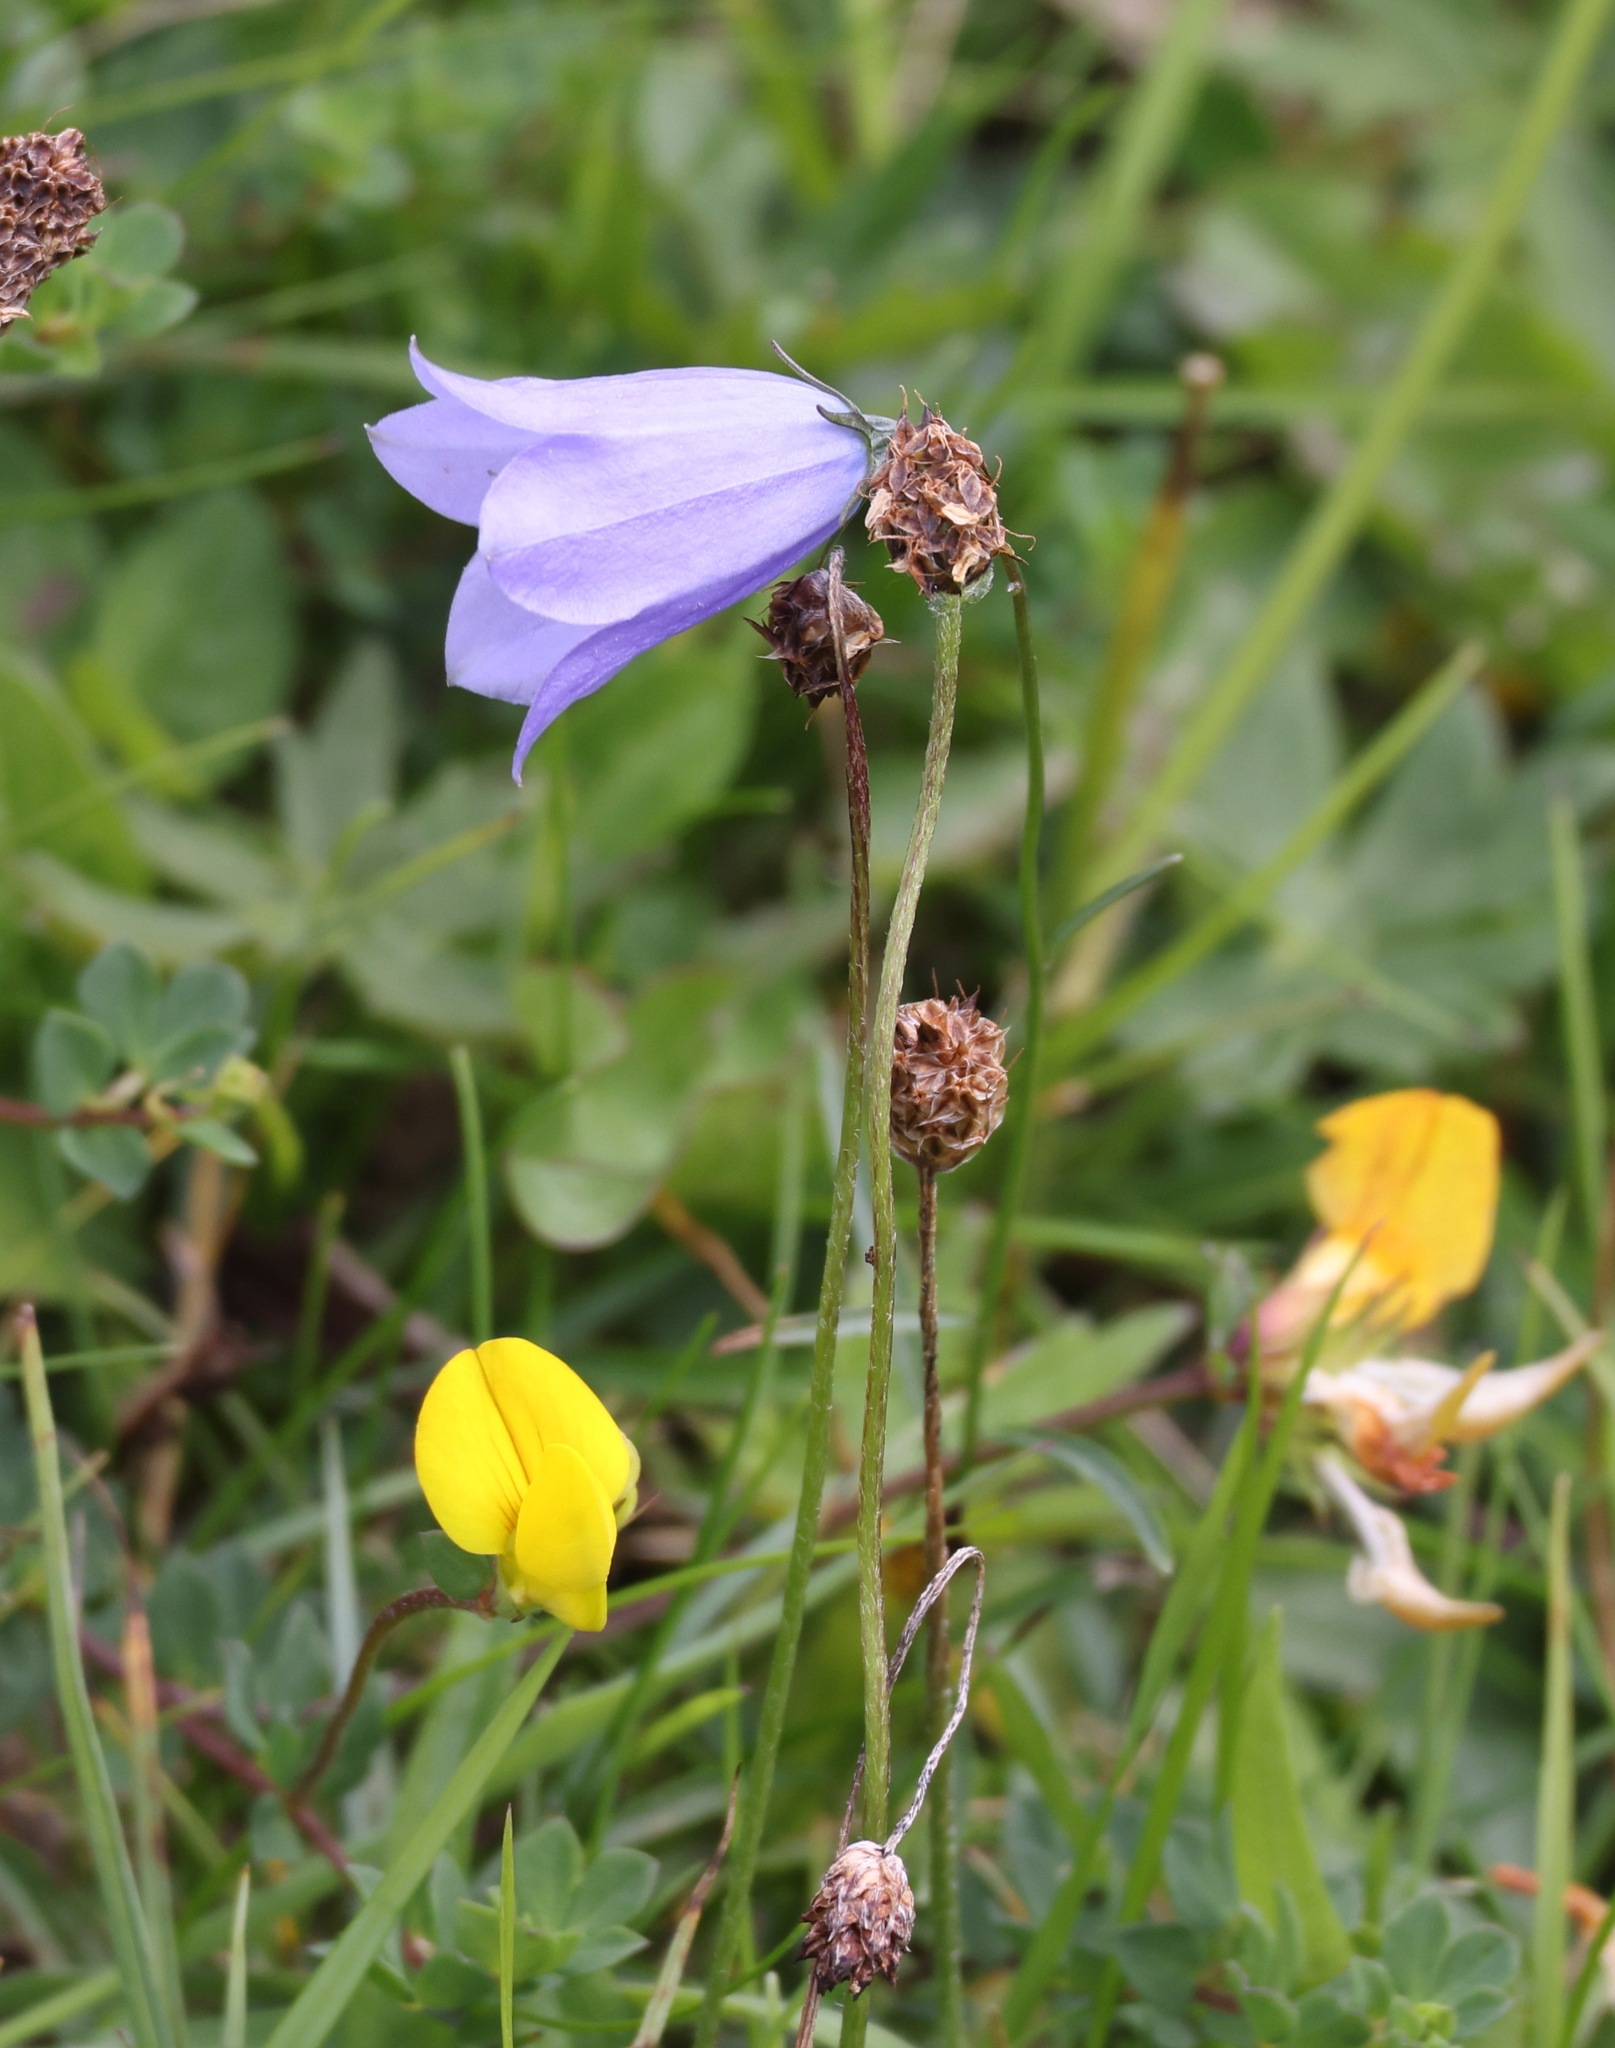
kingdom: Plantae
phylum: Tracheophyta
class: Magnoliopsida
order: Asterales
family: Campanulaceae
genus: Campanula
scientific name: Campanula rotundifolia
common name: Harebell
